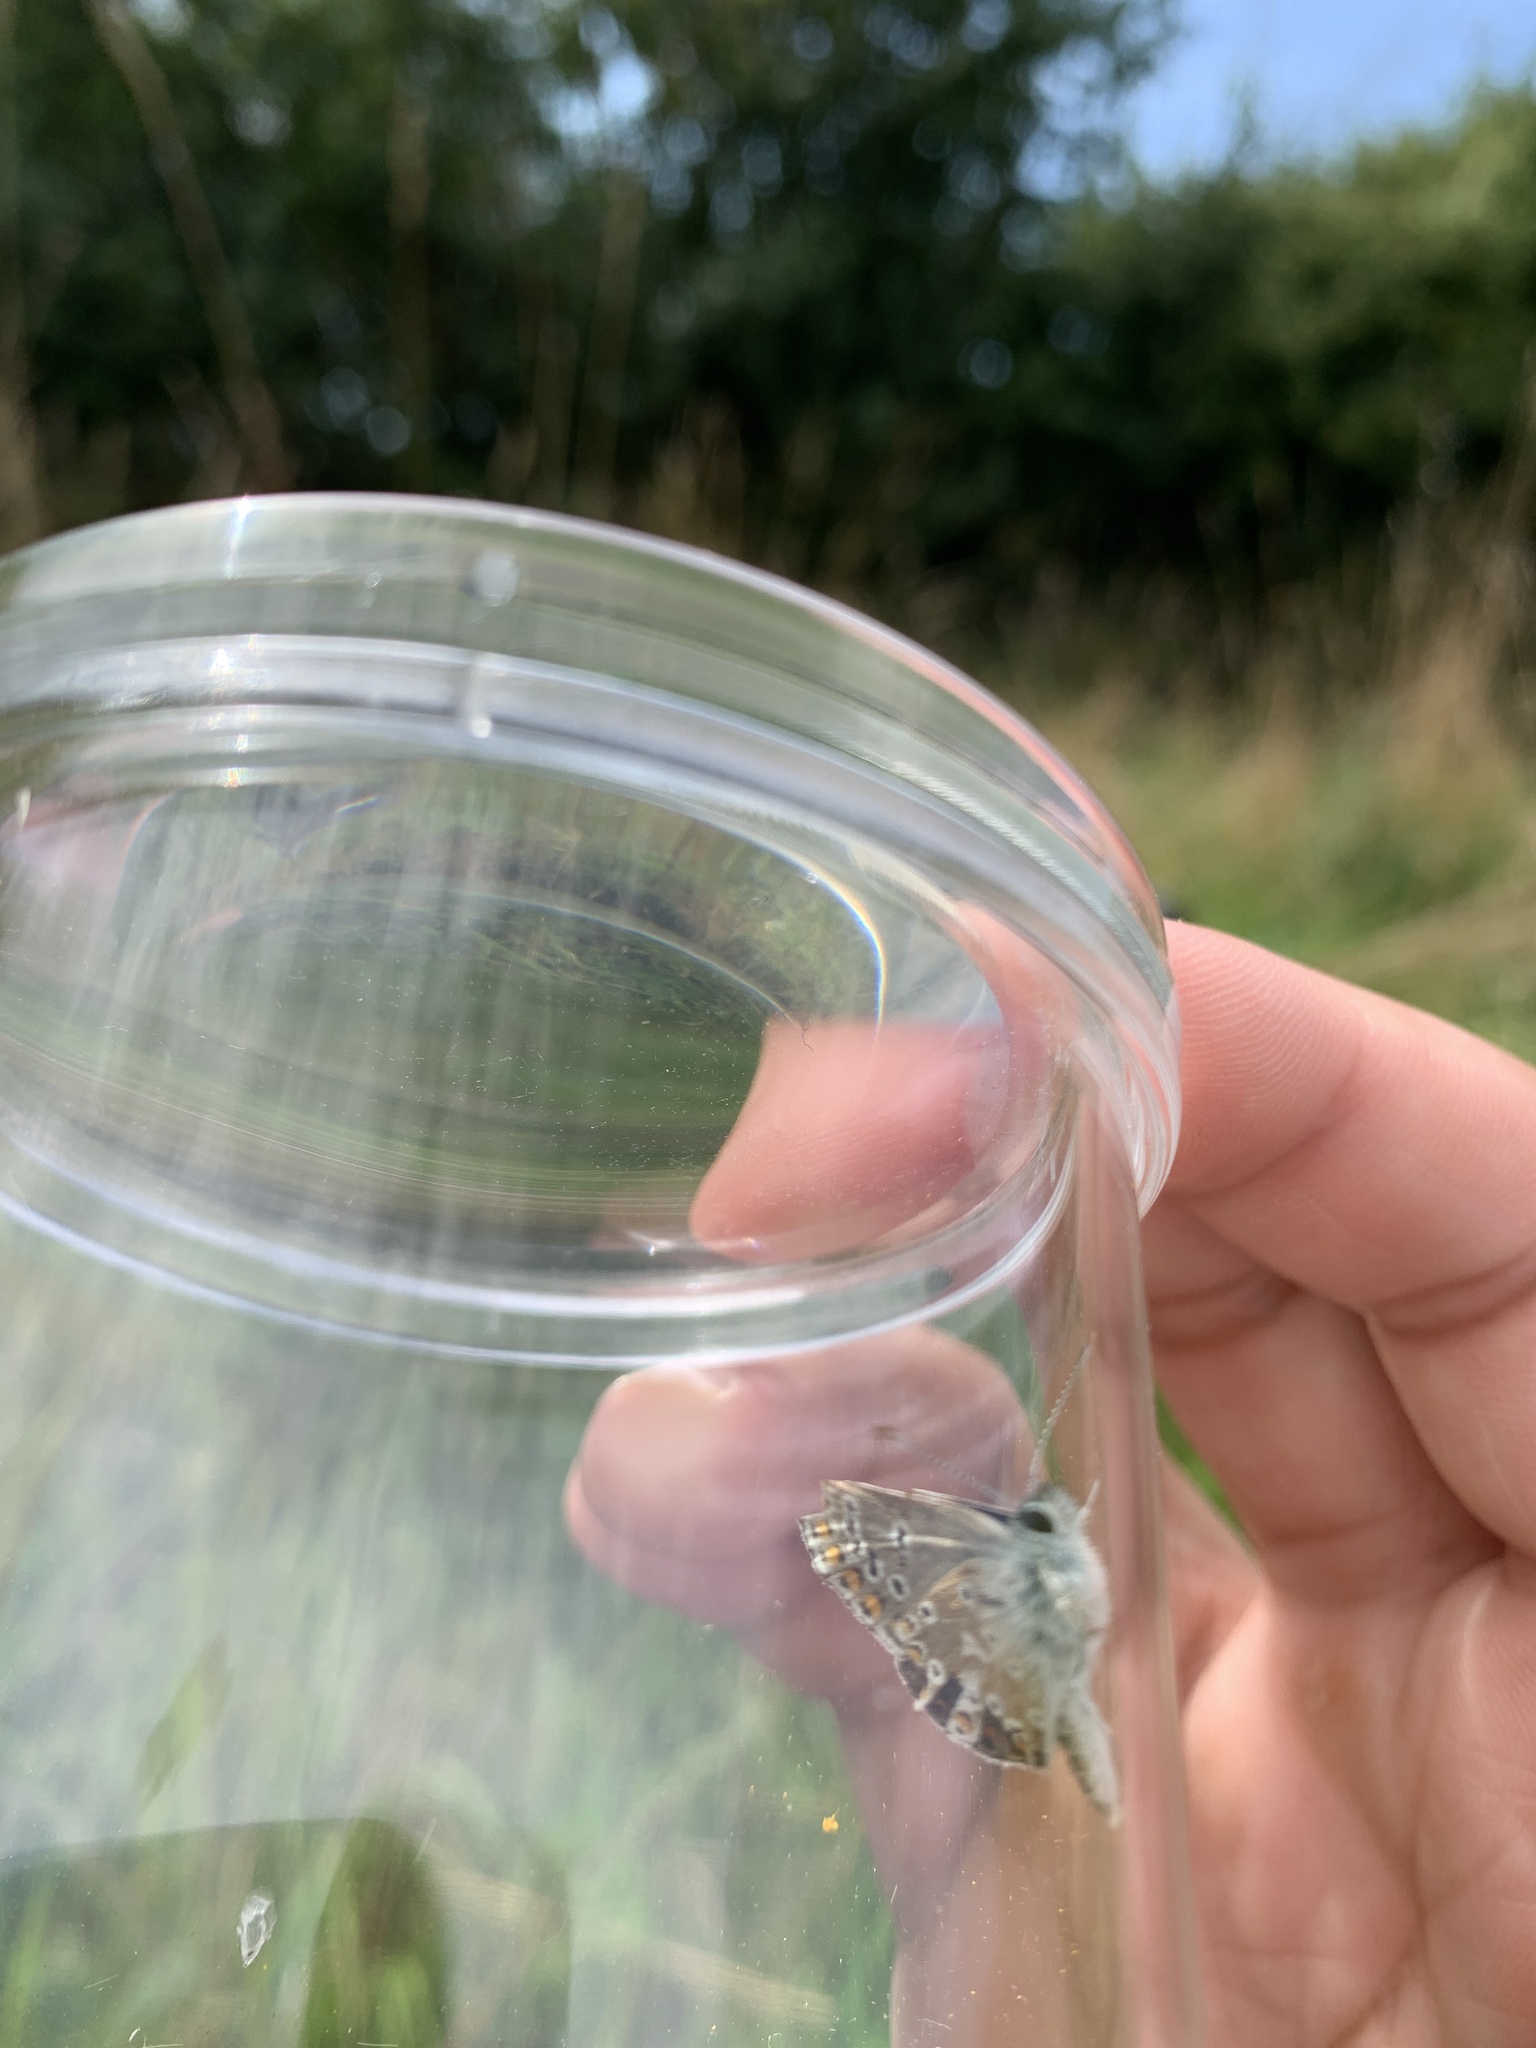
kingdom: Animalia
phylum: Arthropoda
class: Insecta
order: Lepidoptera
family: Lycaenidae
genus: Polyommatus
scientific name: Polyommatus icarus
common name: Common blue
